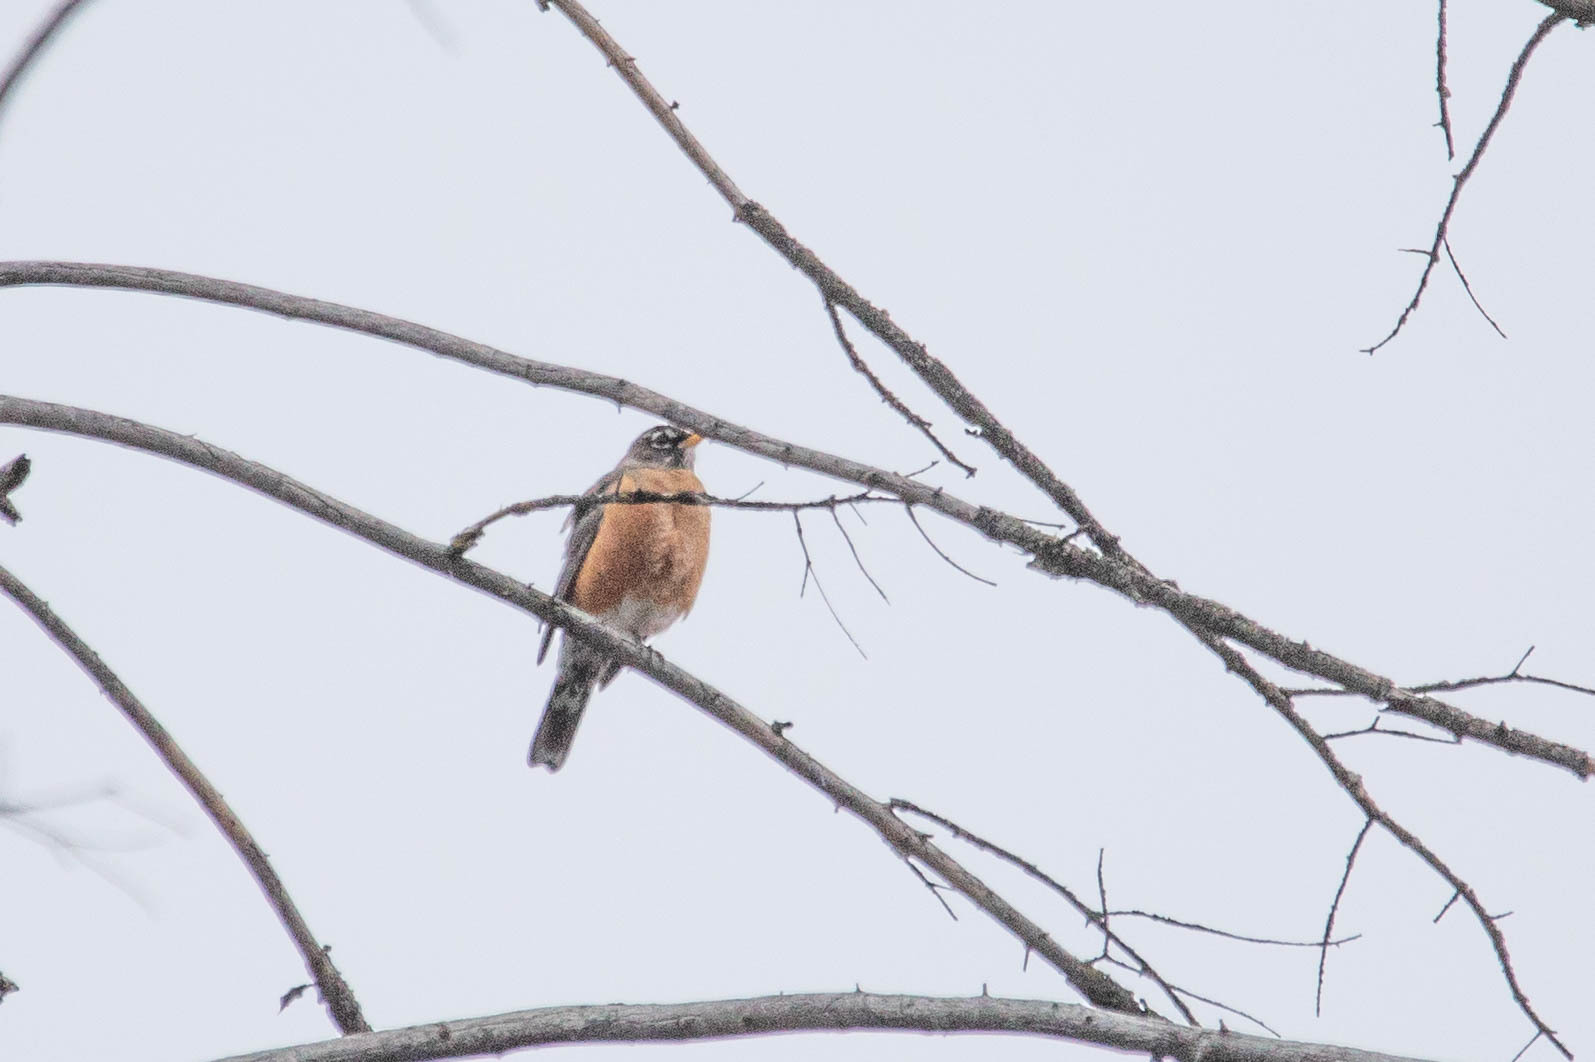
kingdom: Animalia
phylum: Chordata
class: Aves
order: Passeriformes
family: Turdidae
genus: Turdus
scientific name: Turdus migratorius
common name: American robin
